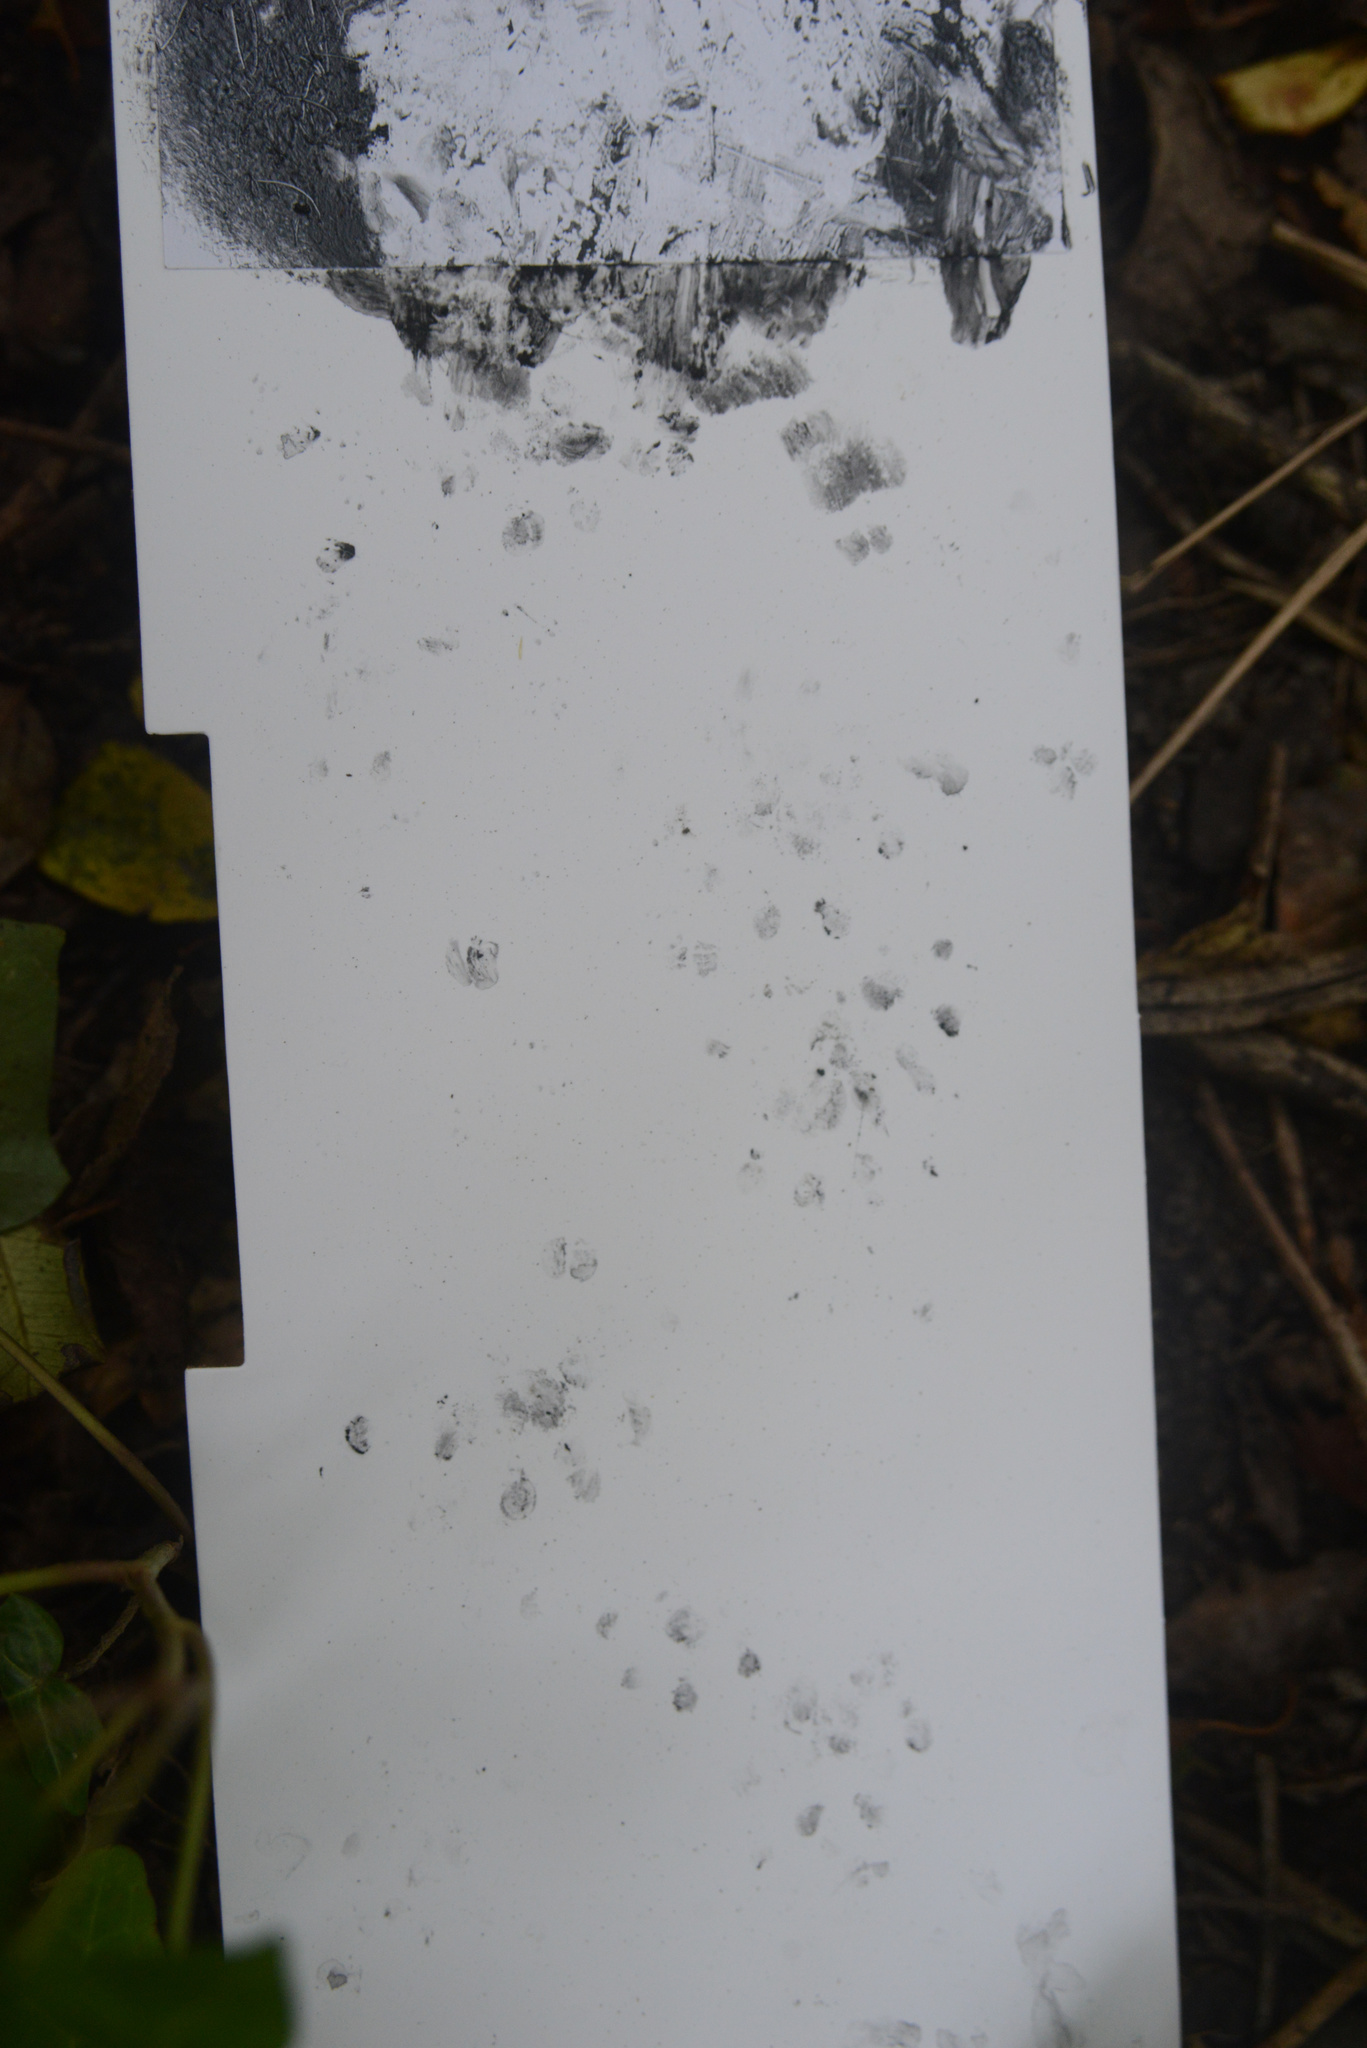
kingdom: Animalia
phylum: Chordata
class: Mammalia
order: Erinaceomorpha
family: Erinaceidae
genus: Erinaceus
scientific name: Erinaceus europaeus
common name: West european hedgehog
